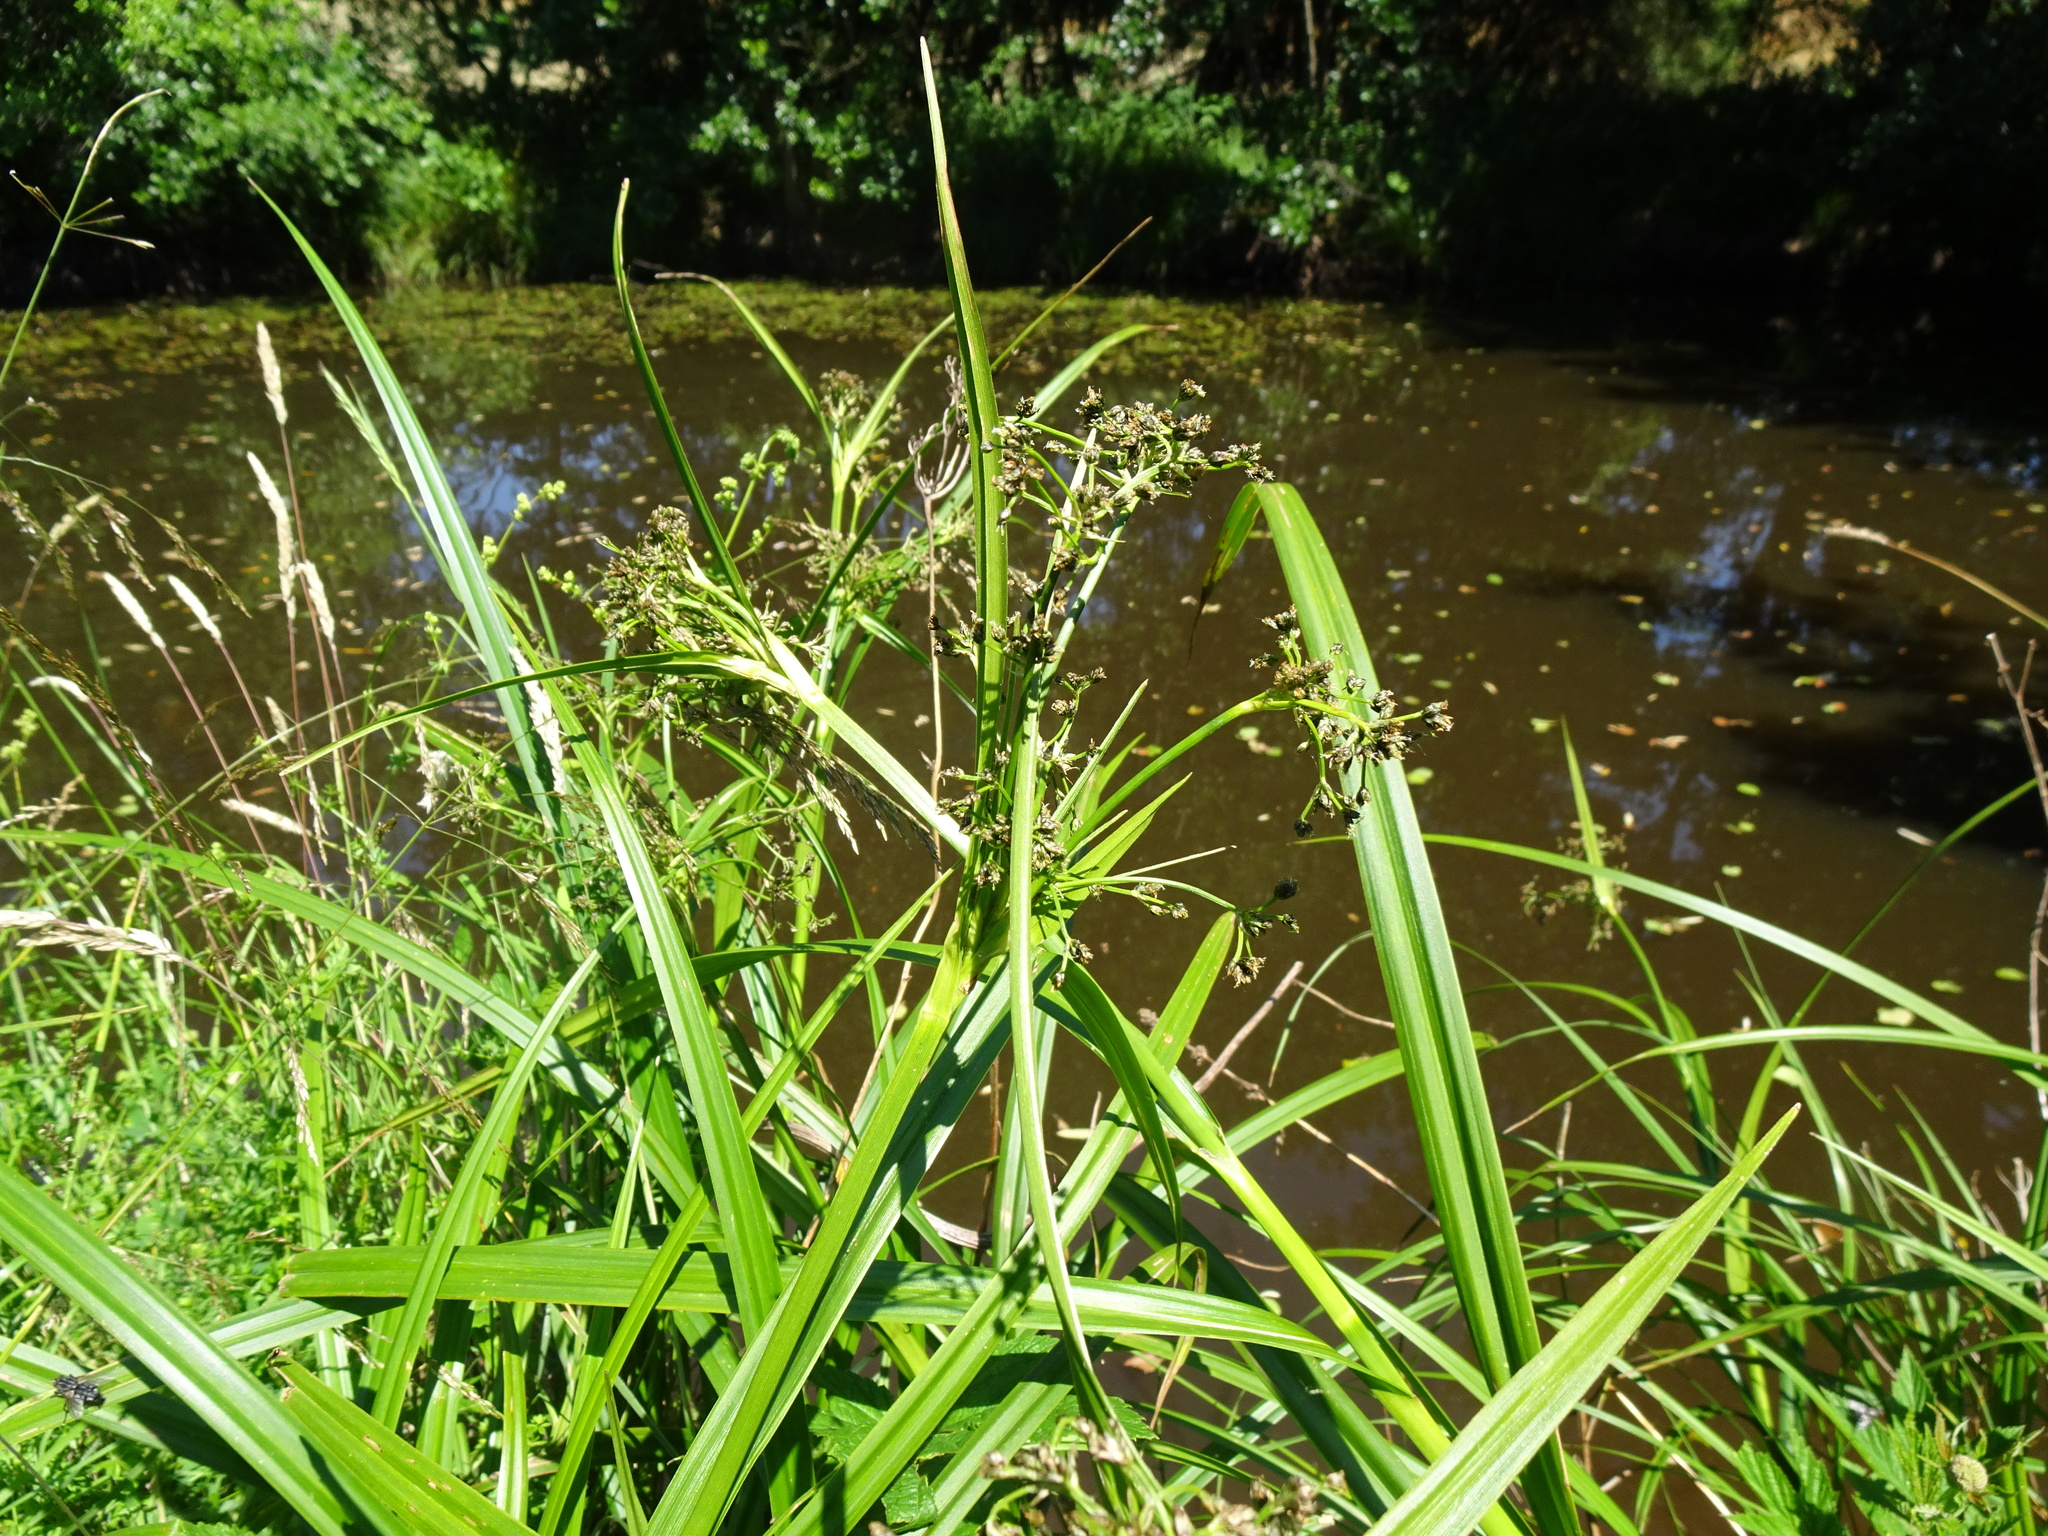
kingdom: Plantae
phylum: Tracheophyta
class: Liliopsida
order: Poales
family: Cyperaceae
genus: Scirpus
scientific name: Scirpus sylvaticus
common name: Wood club-rush
